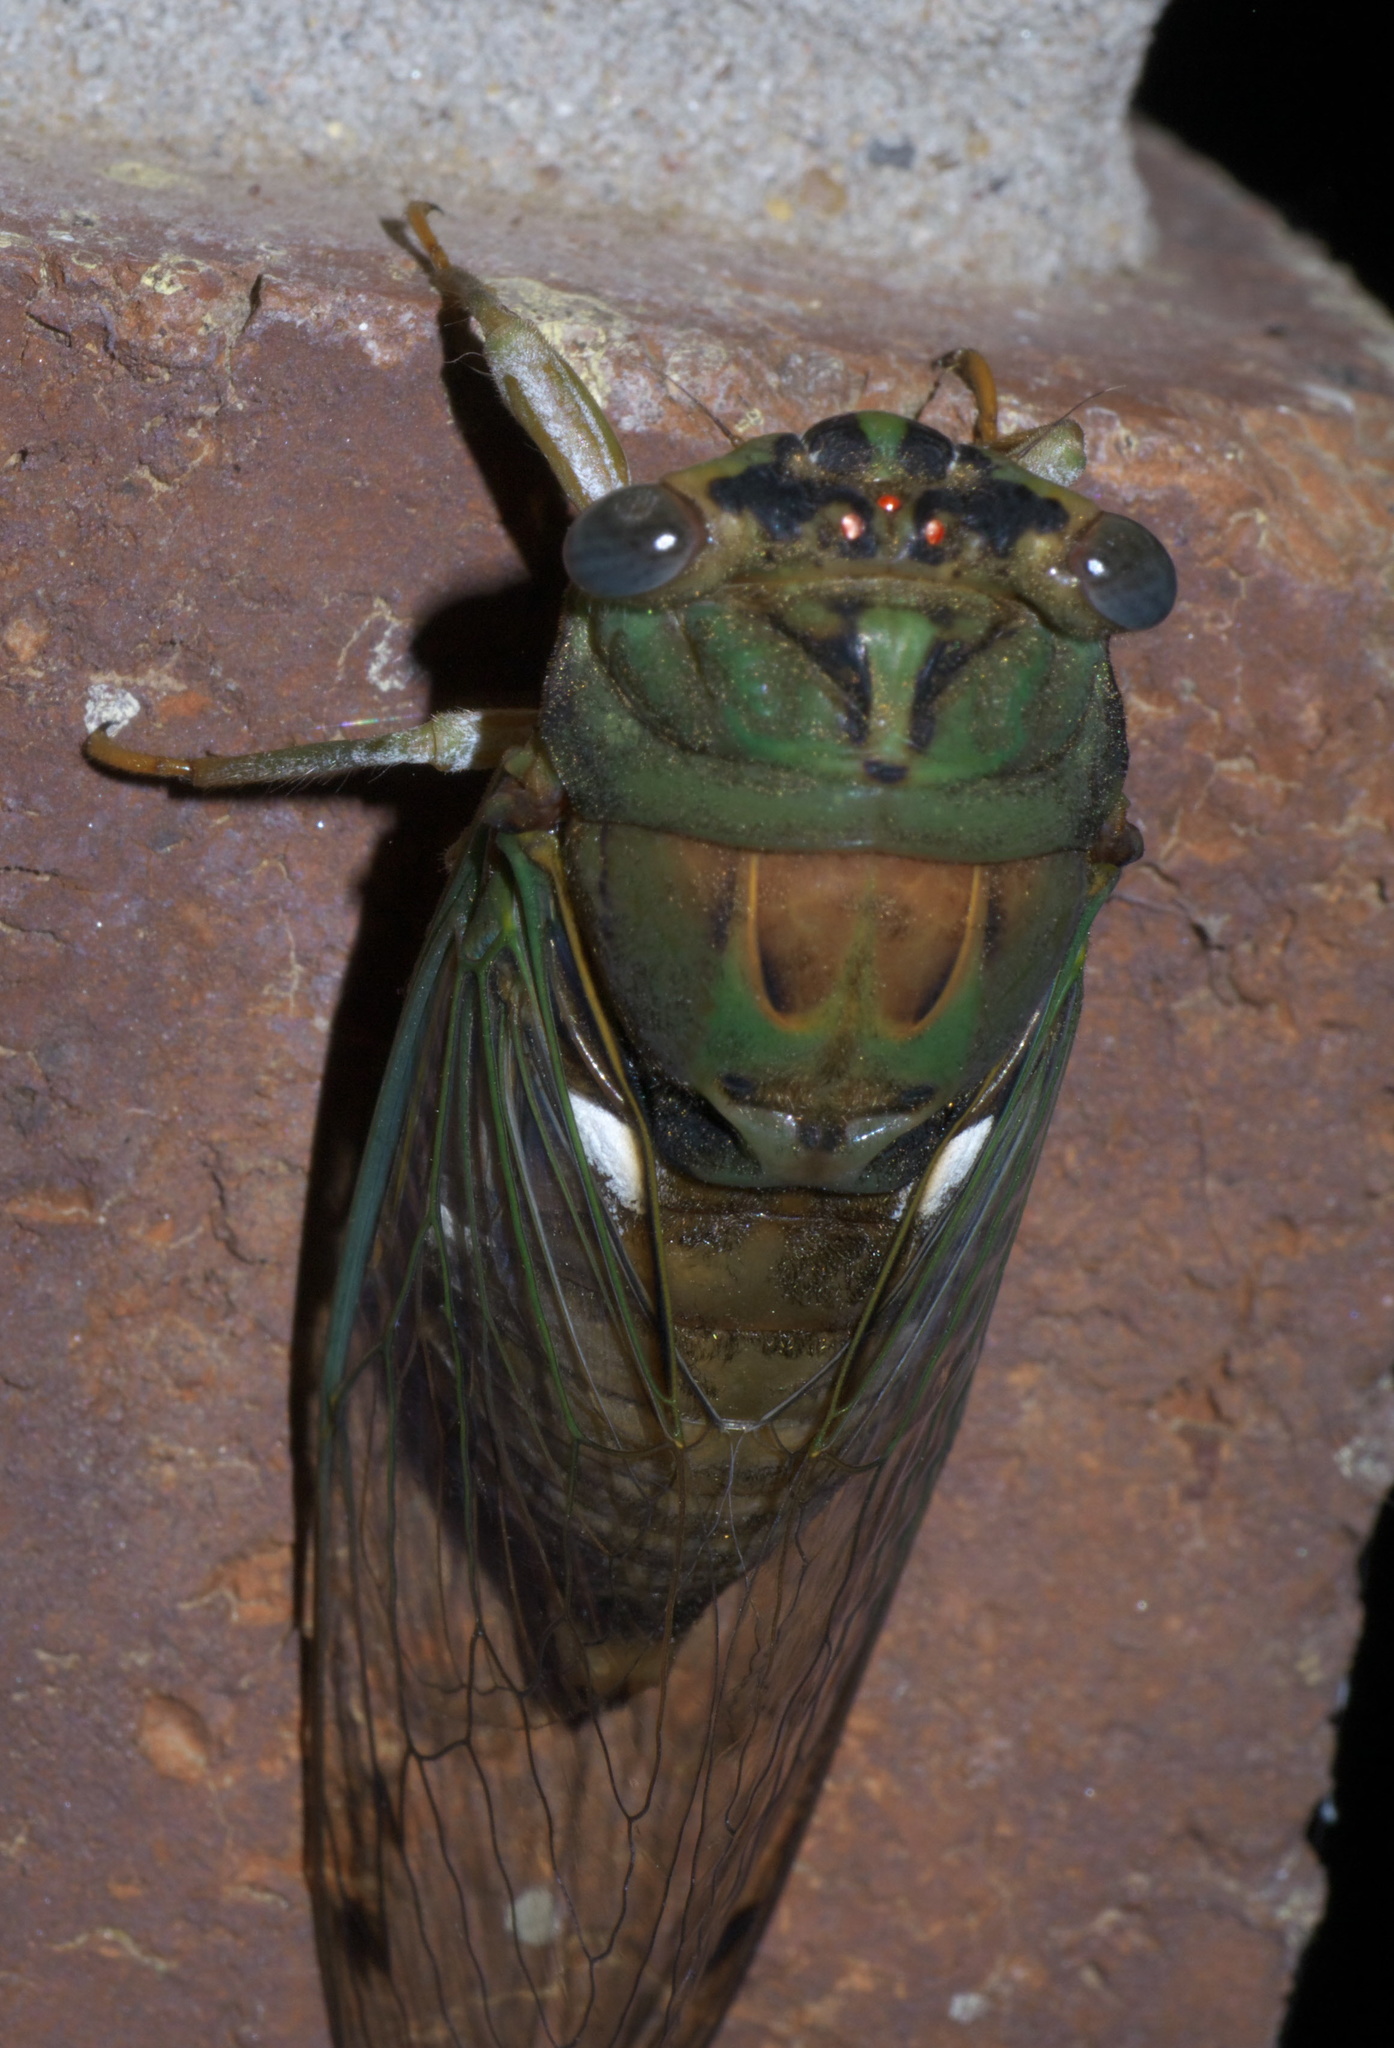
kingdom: Animalia
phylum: Arthropoda
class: Insecta
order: Hemiptera
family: Cicadidae
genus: Neotibicen
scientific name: Neotibicen pruinosus
